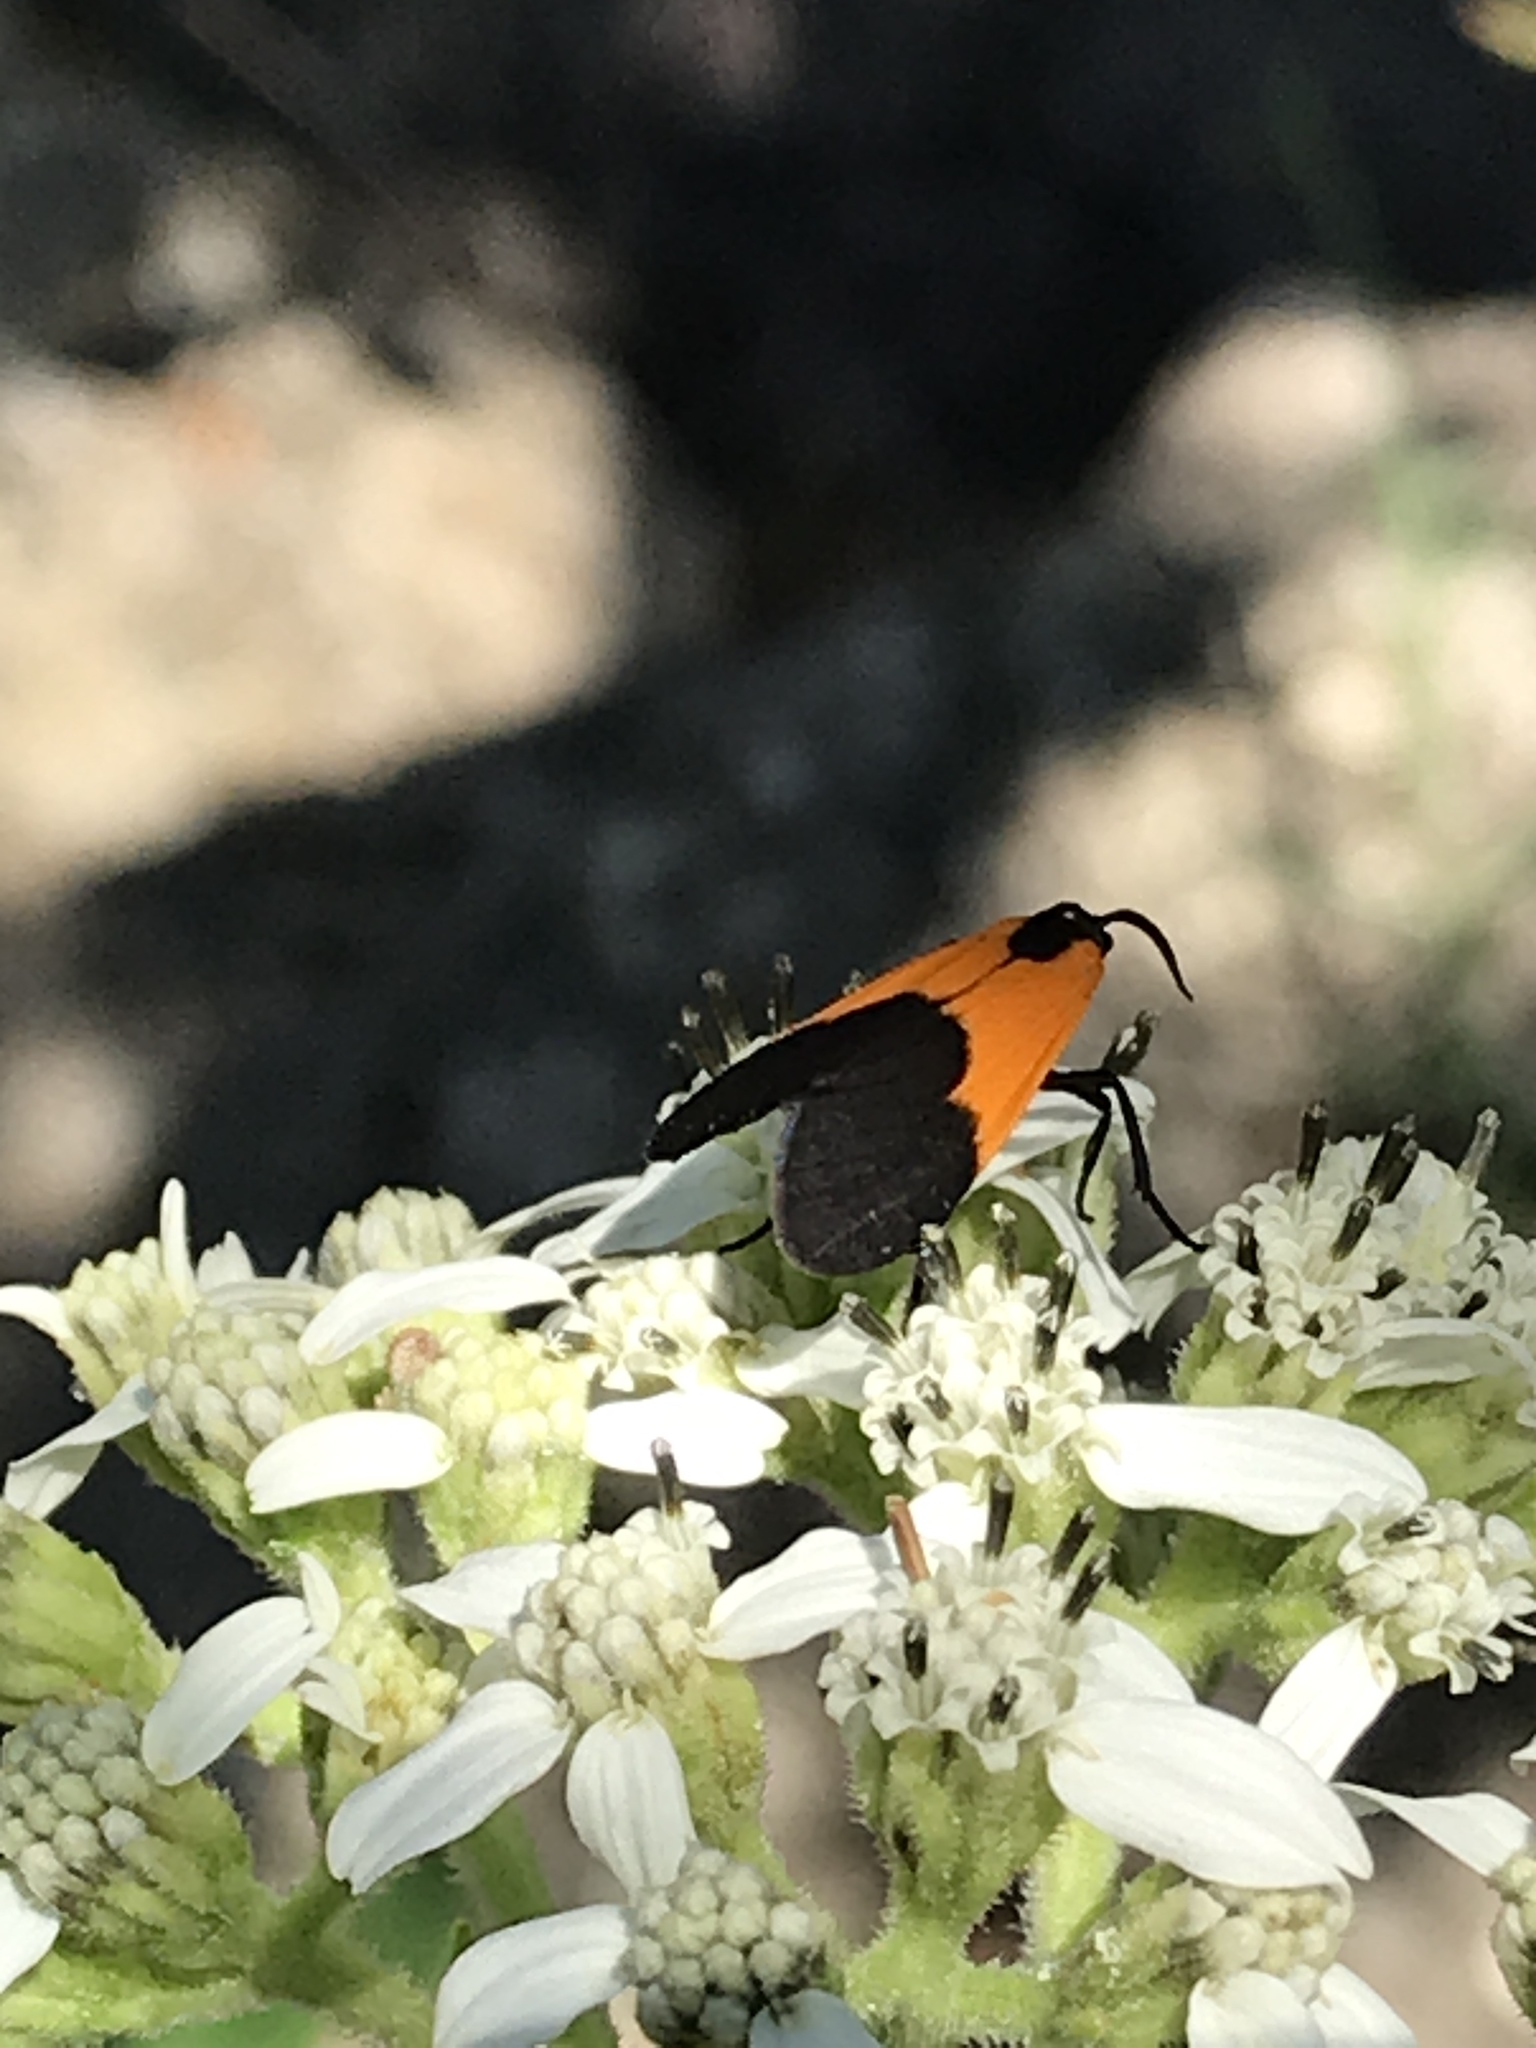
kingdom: Animalia
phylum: Arthropoda
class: Insecta
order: Lepidoptera
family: Erebidae
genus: Lycomorpha
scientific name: Lycomorpha pholus
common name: Black-and-yellow lichen moth
